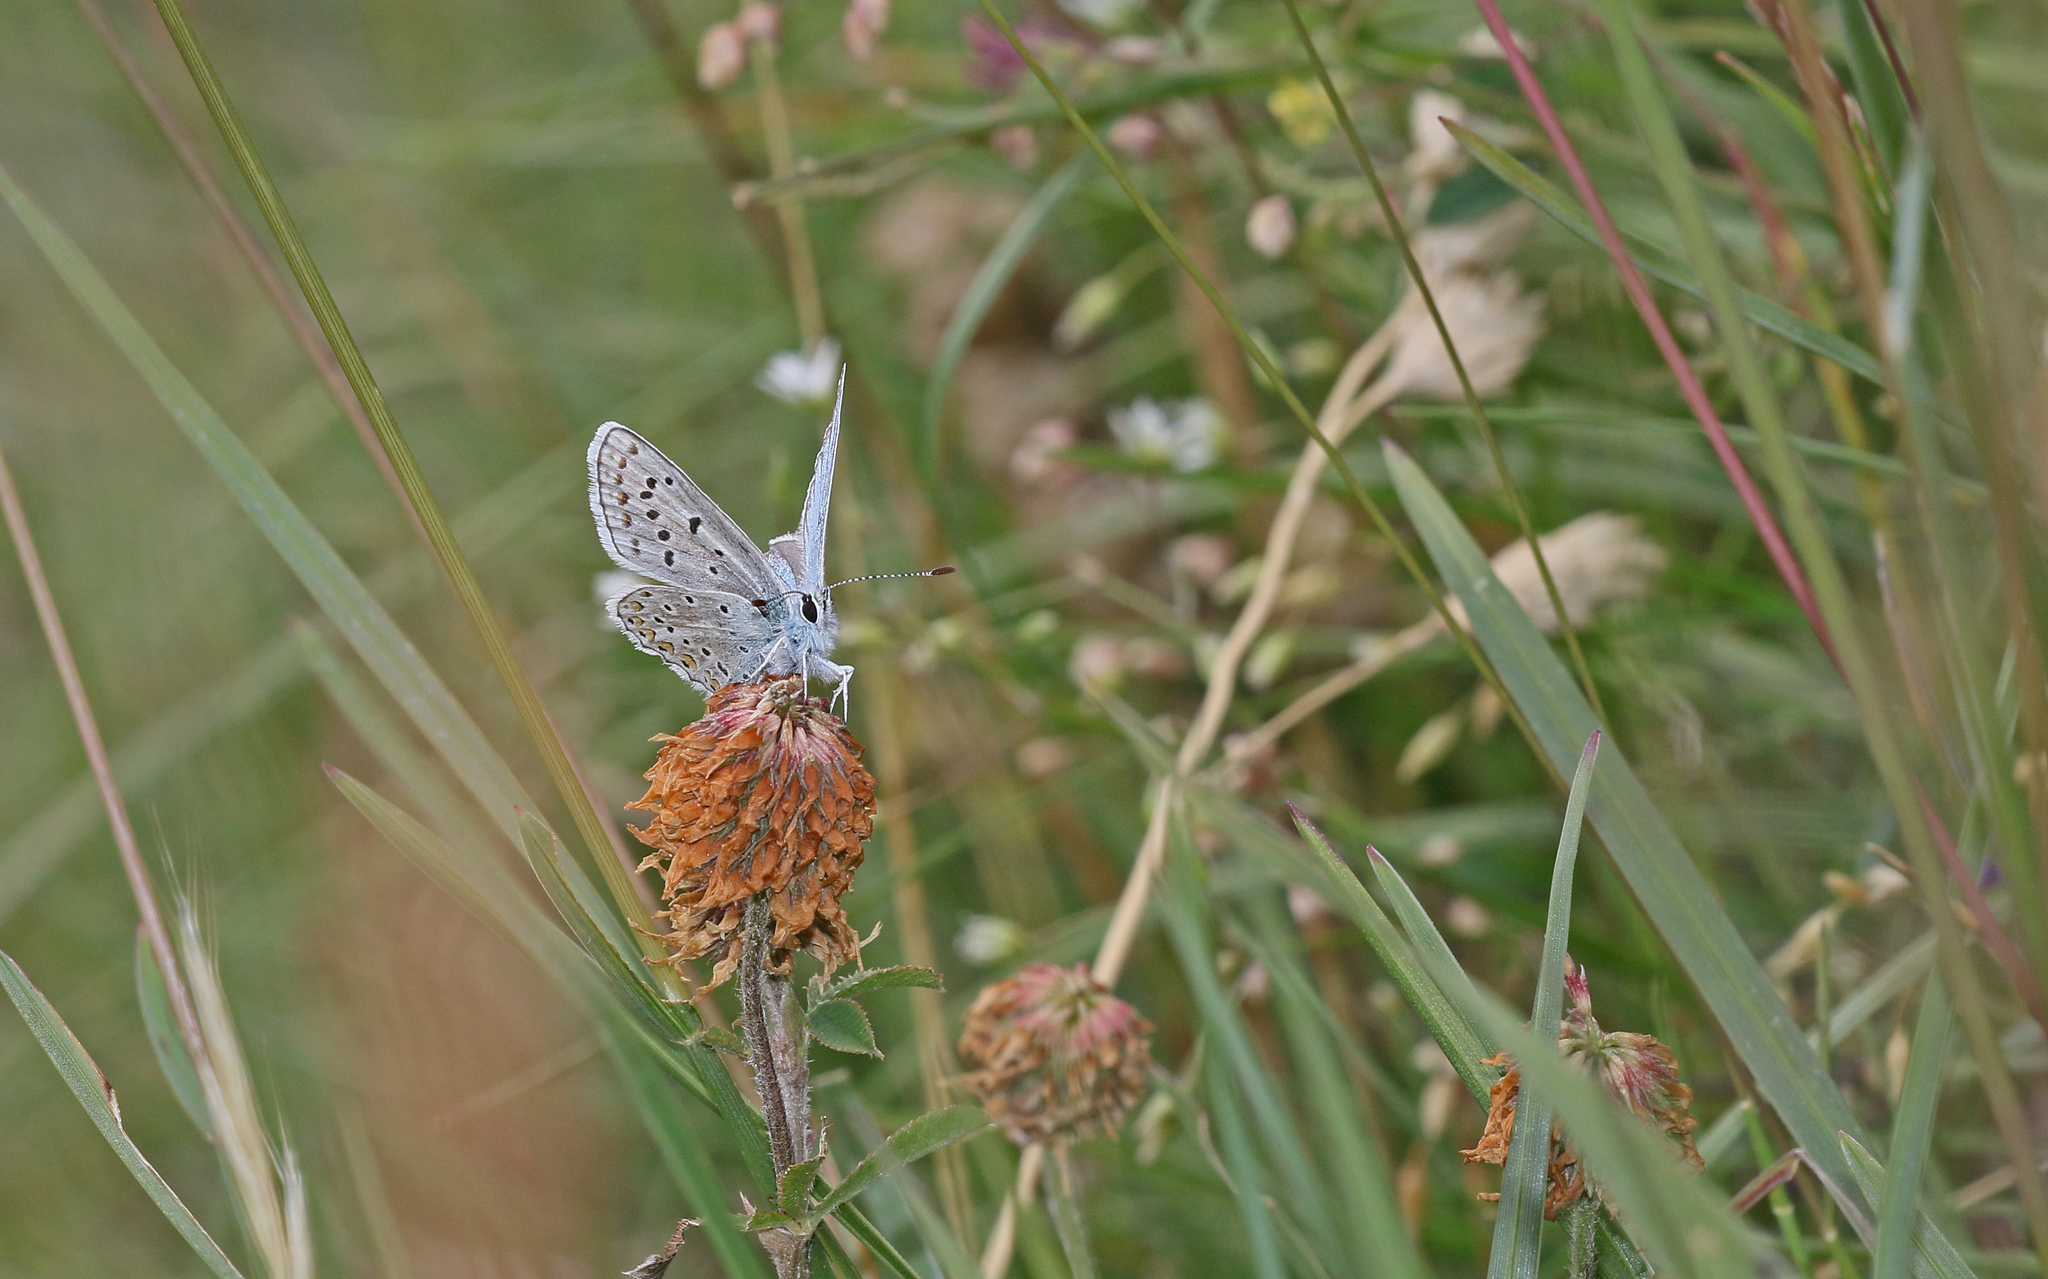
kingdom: Animalia
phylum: Arthropoda
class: Insecta
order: Lepidoptera
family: Lycaenidae
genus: Polyommatus
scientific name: Polyommatus eros
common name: Eros blue
